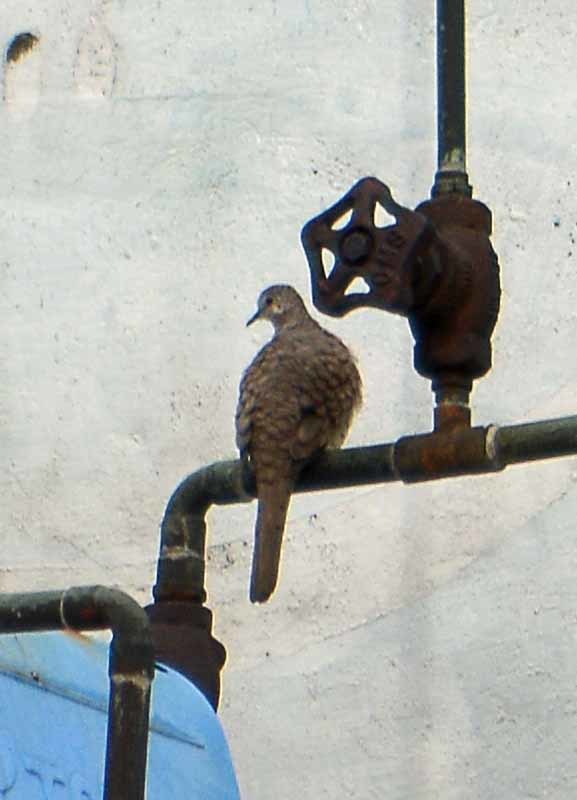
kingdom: Animalia
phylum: Chordata
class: Aves
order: Columbiformes
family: Columbidae
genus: Columbina
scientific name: Columbina inca
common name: Inca dove
